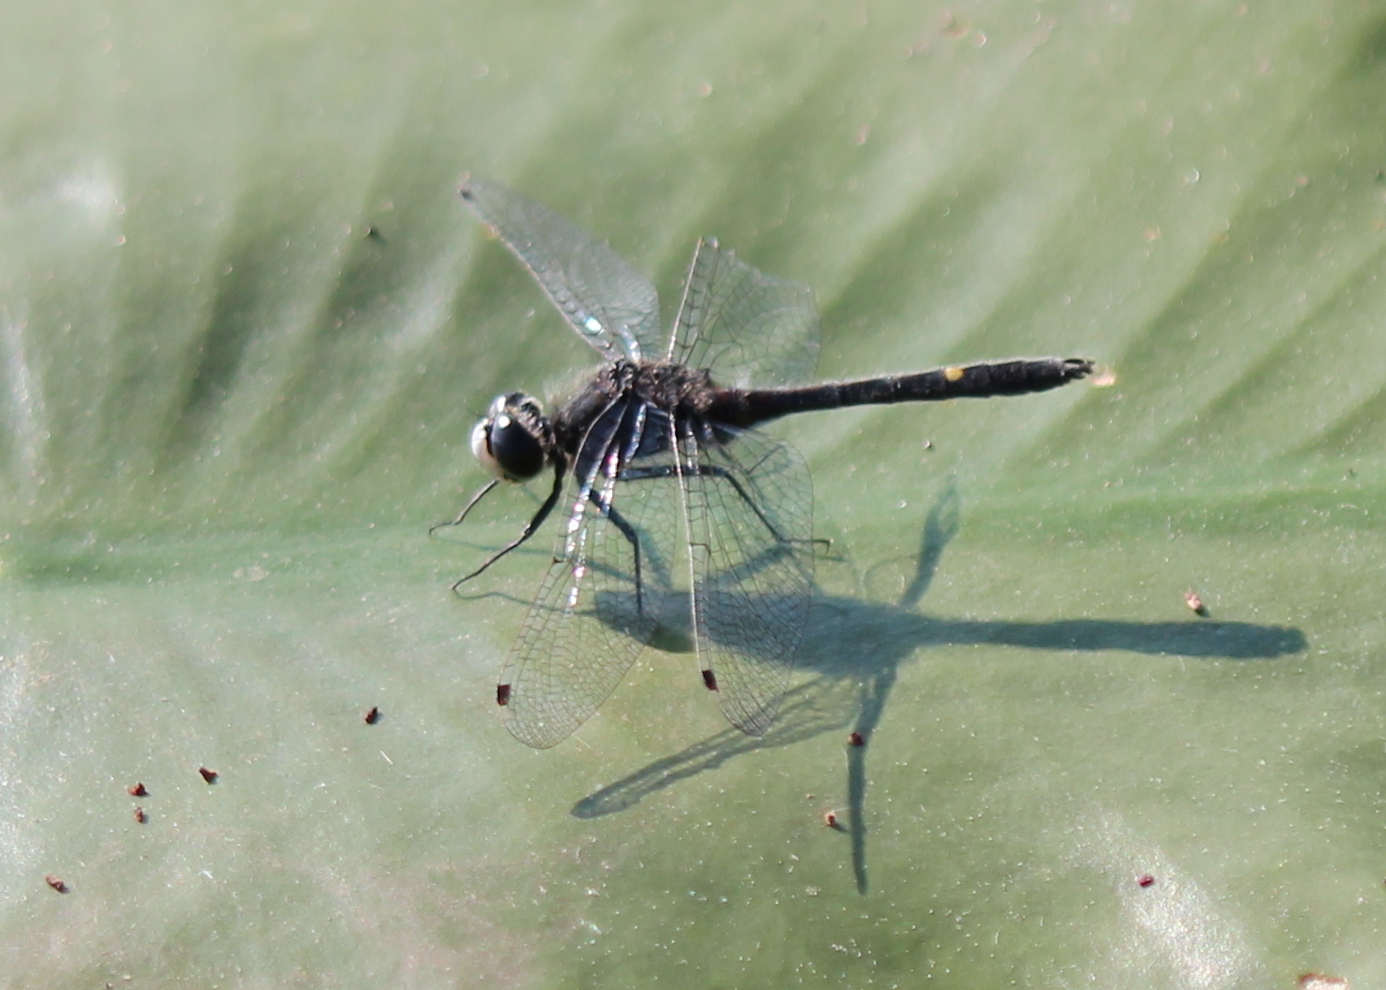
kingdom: Animalia
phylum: Arthropoda
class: Insecta
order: Odonata
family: Libellulidae
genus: Leucorrhinia
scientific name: Leucorrhinia intacta
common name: Dot-tailed whiteface
